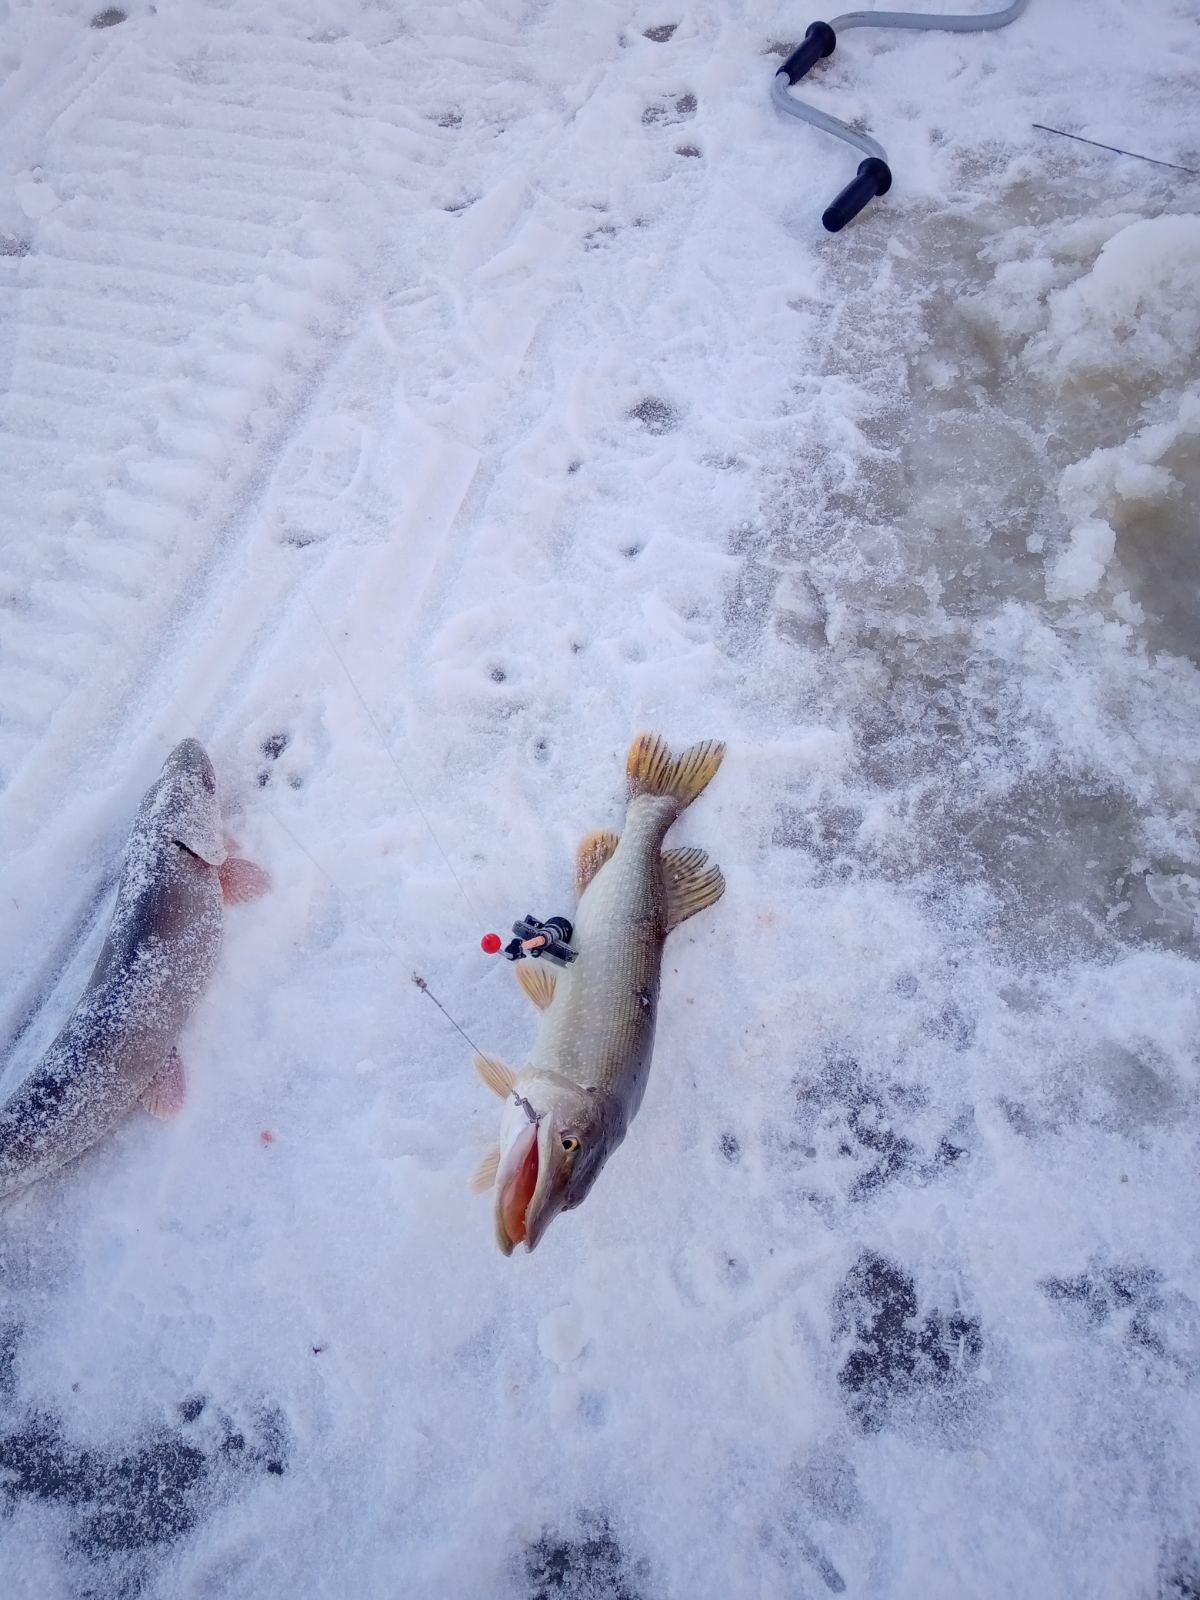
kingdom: Animalia
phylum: Chordata
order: Esociformes
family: Esocidae
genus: Esox
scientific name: Esox lucius
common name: Northern pike
